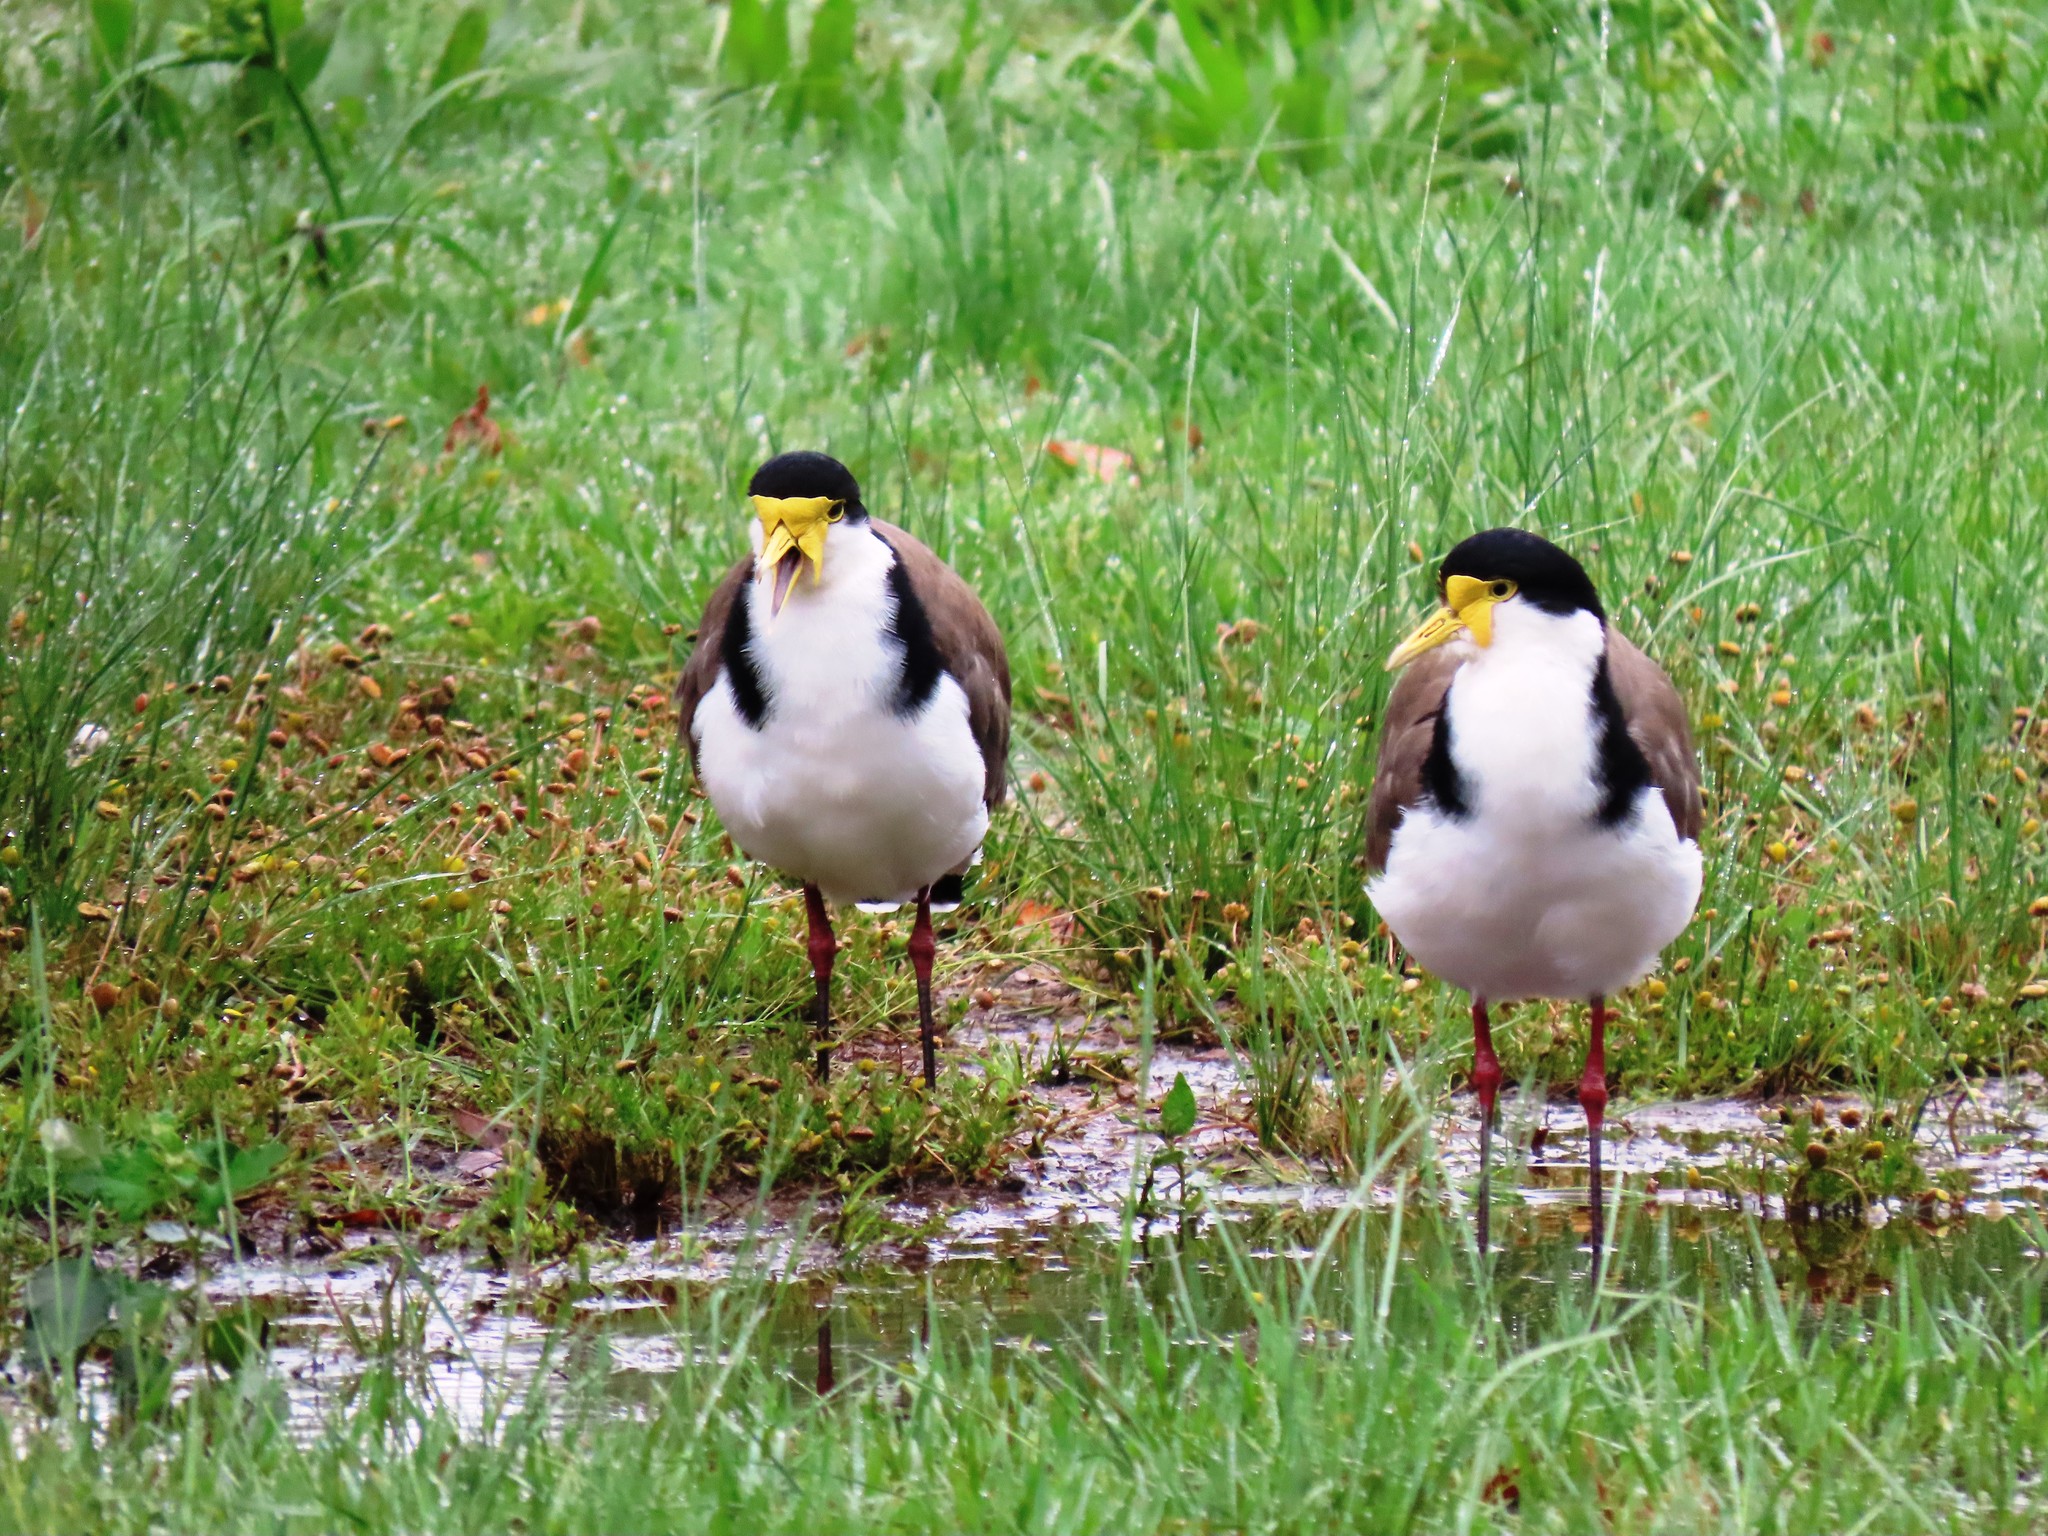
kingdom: Animalia
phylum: Chordata
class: Aves
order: Charadriiformes
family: Charadriidae
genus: Vanellus
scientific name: Vanellus miles
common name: Masked lapwing
